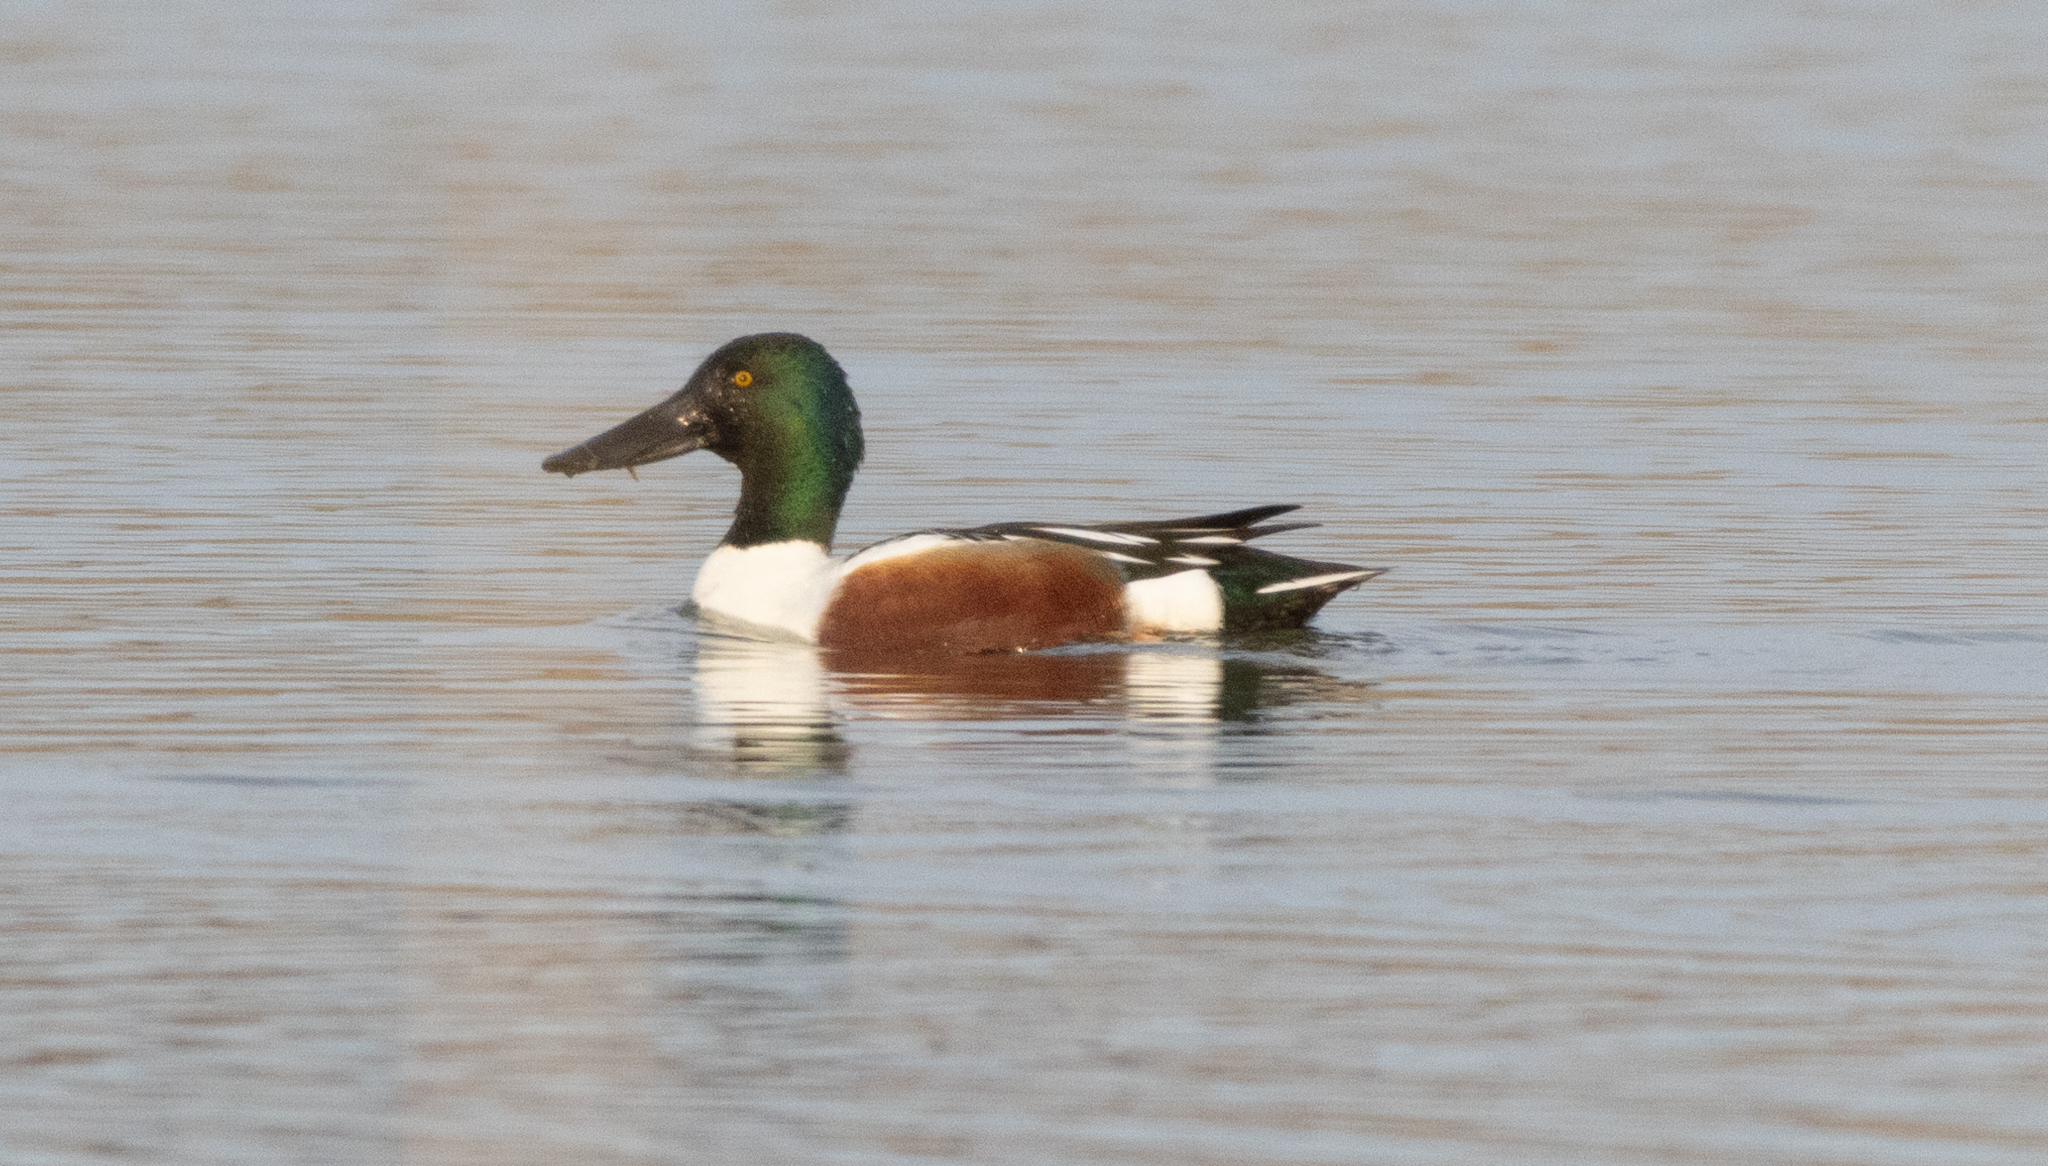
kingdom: Animalia
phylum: Chordata
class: Aves
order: Anseriformes
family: Anatidae
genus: Spatula
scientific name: Spatula clypeata
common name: Northern shoveler
